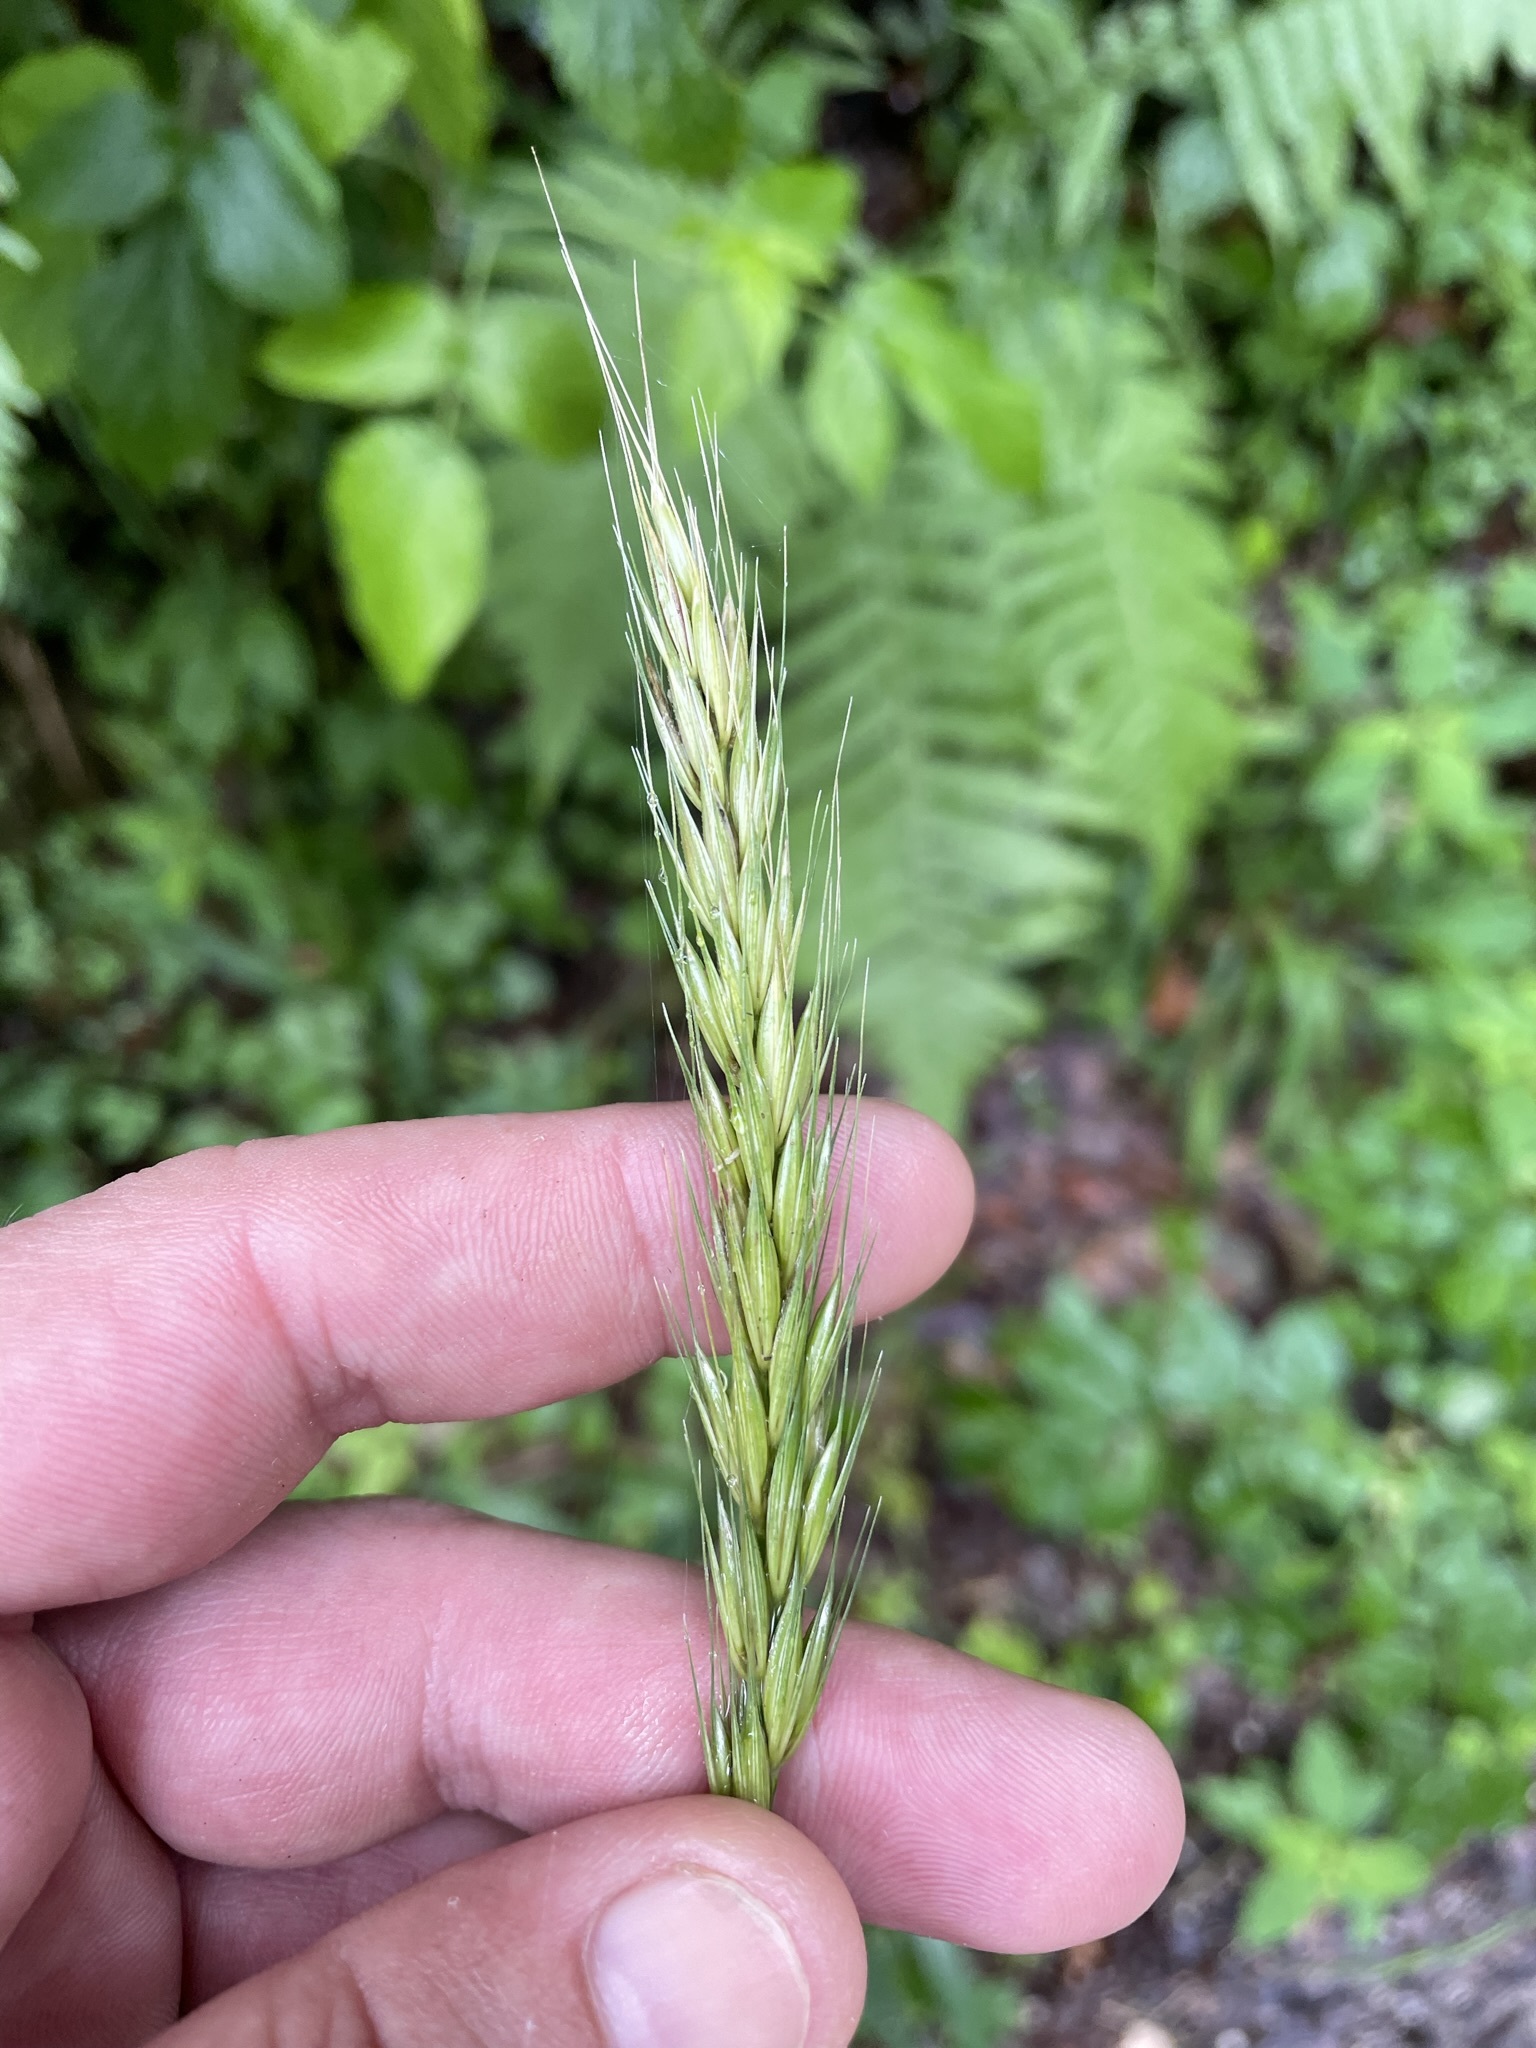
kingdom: Plantae
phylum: Tracheophyta
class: Liliopsida
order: Poales
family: Poaceae
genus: Hordelymus
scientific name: Hordelymus europaeus
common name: Wood-barley
